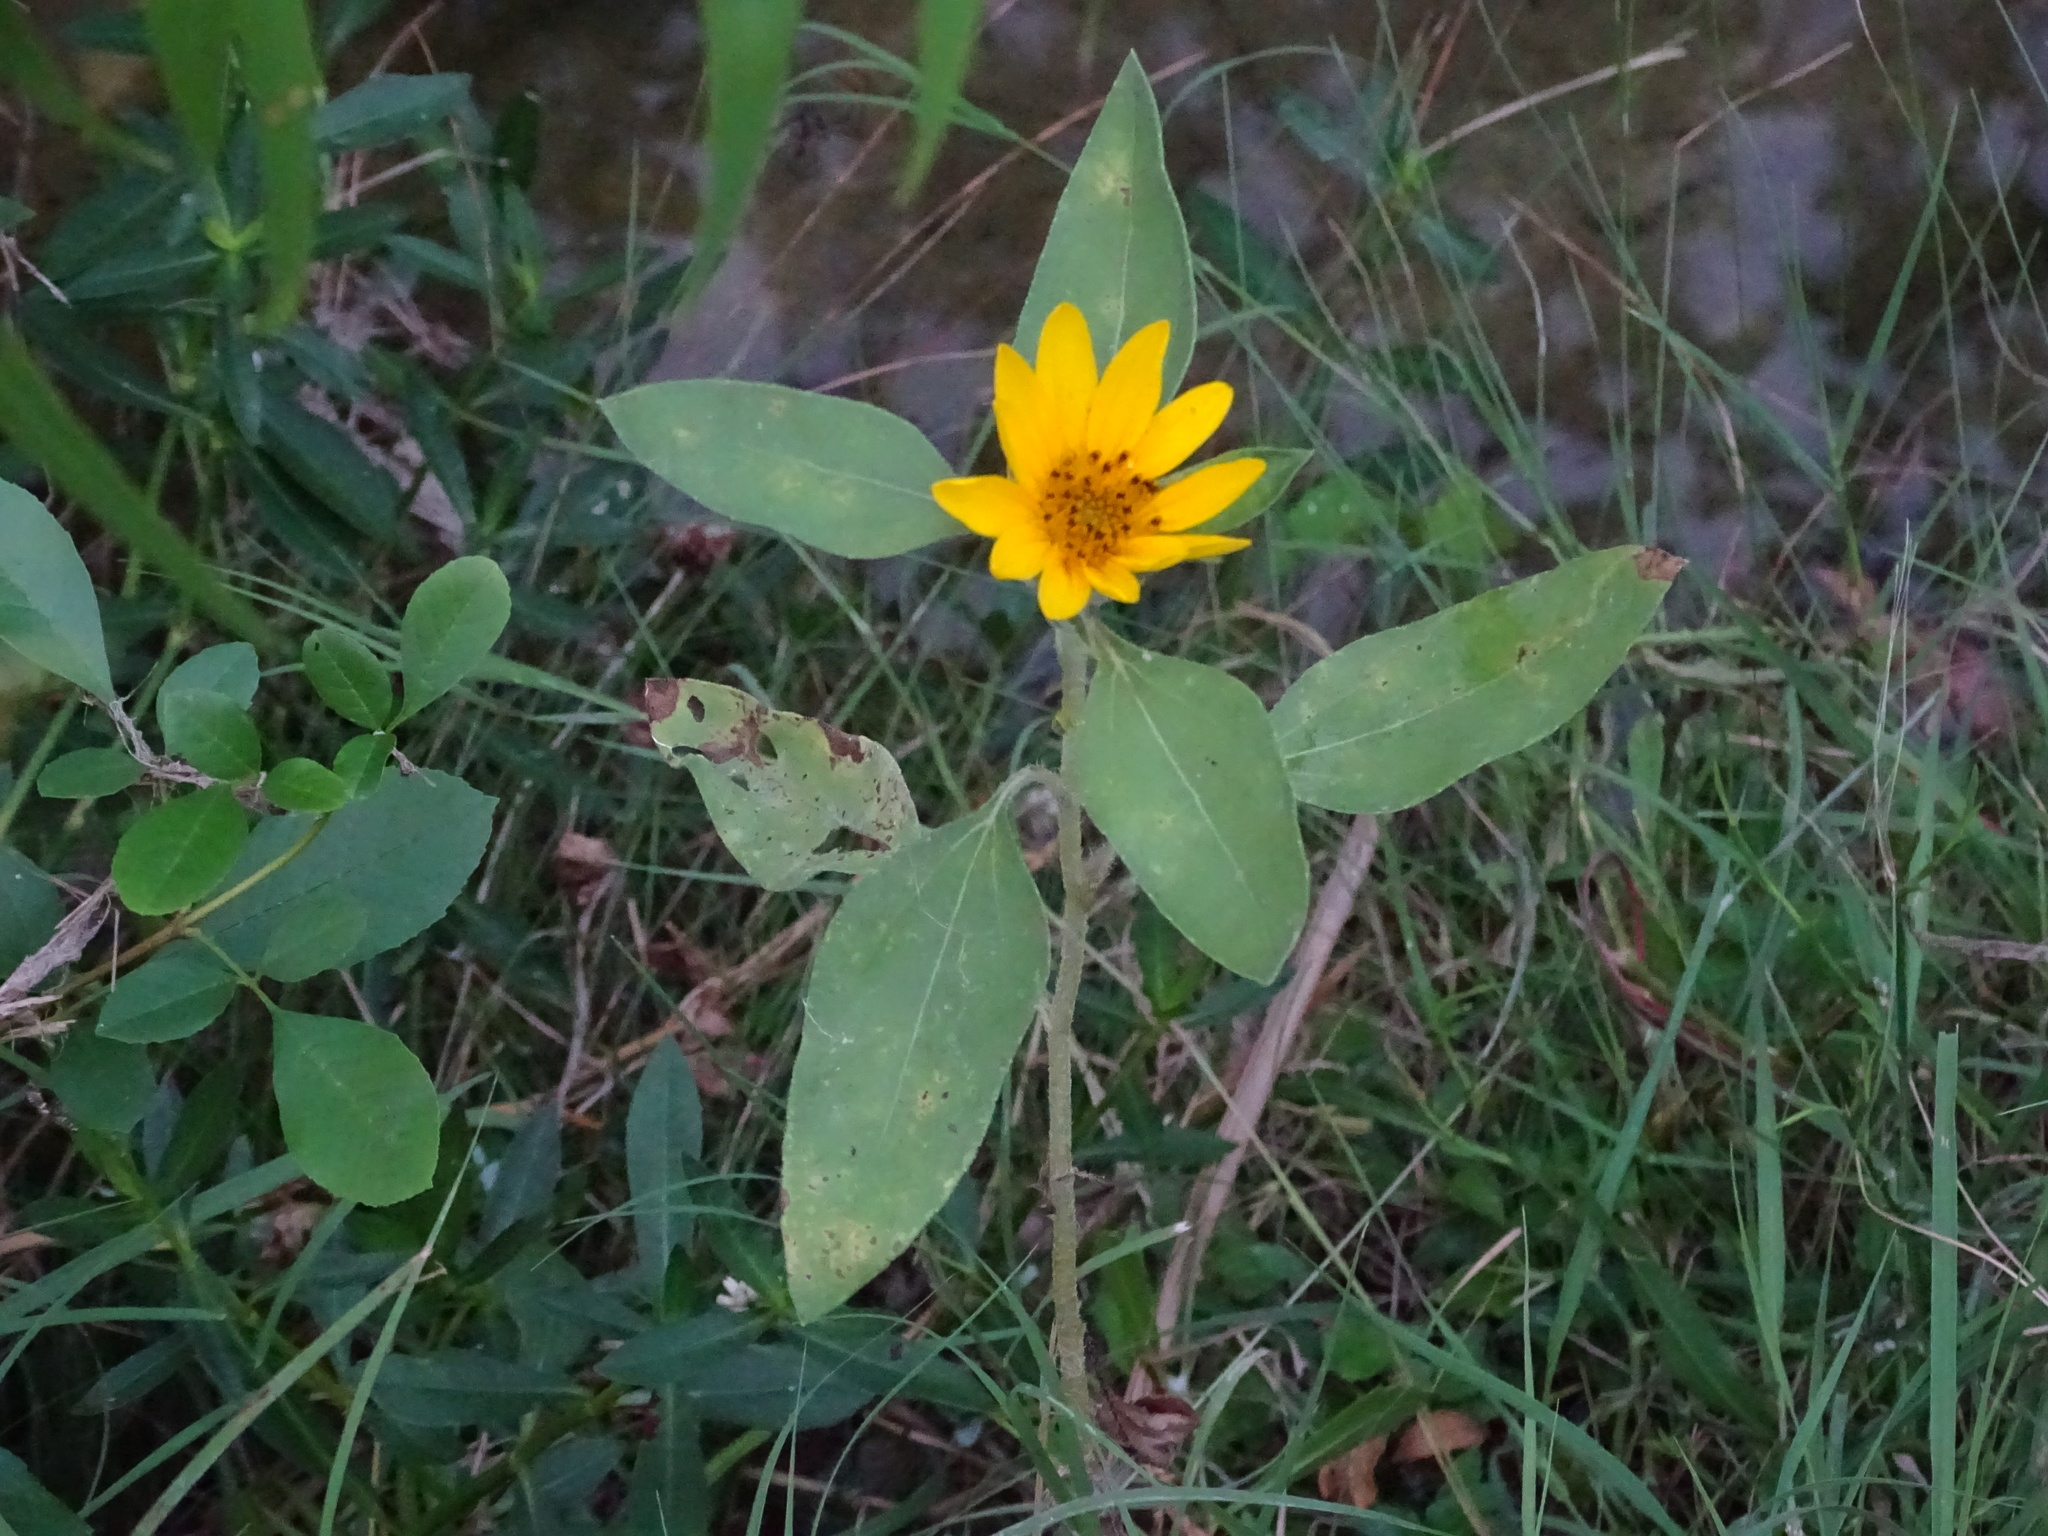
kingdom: Plantae
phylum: Tracheophyta
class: Magnoliopsida
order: Asterales
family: Asteraceae
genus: Helianthus
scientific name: Helianthus hirsutus
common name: Hairy sunflower
